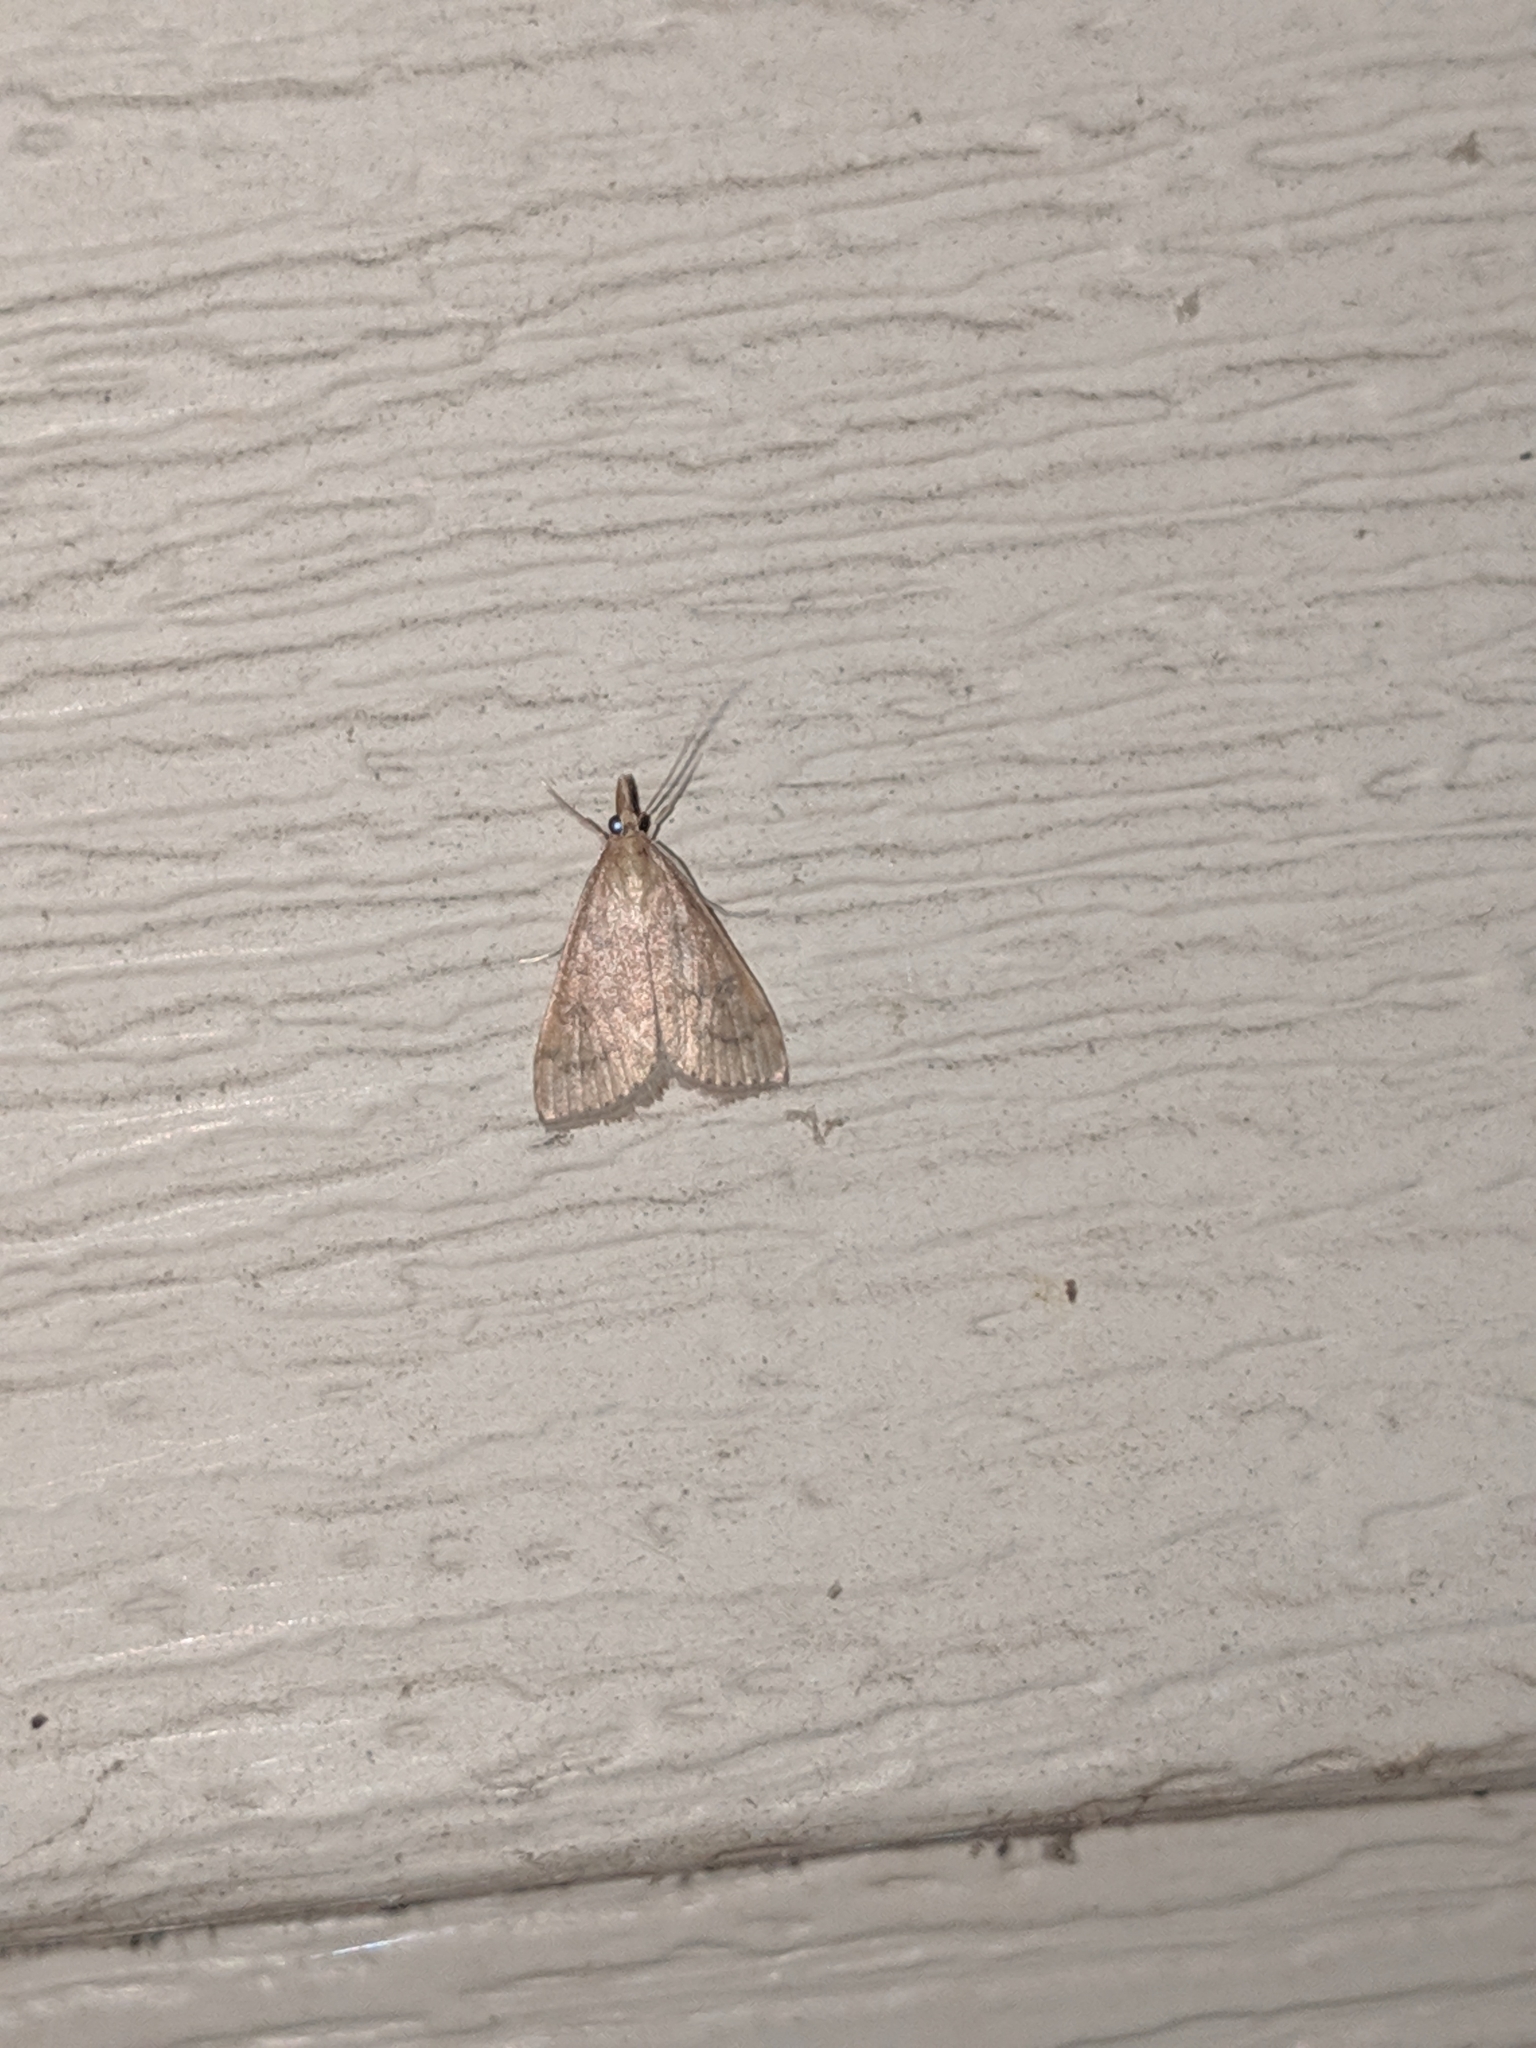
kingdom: Animalia
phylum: Arthropoda
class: Insecta
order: Lepidoptera
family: Crambidae
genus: Udea
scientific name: Udea rubigalis
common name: Celery leaftier moth
